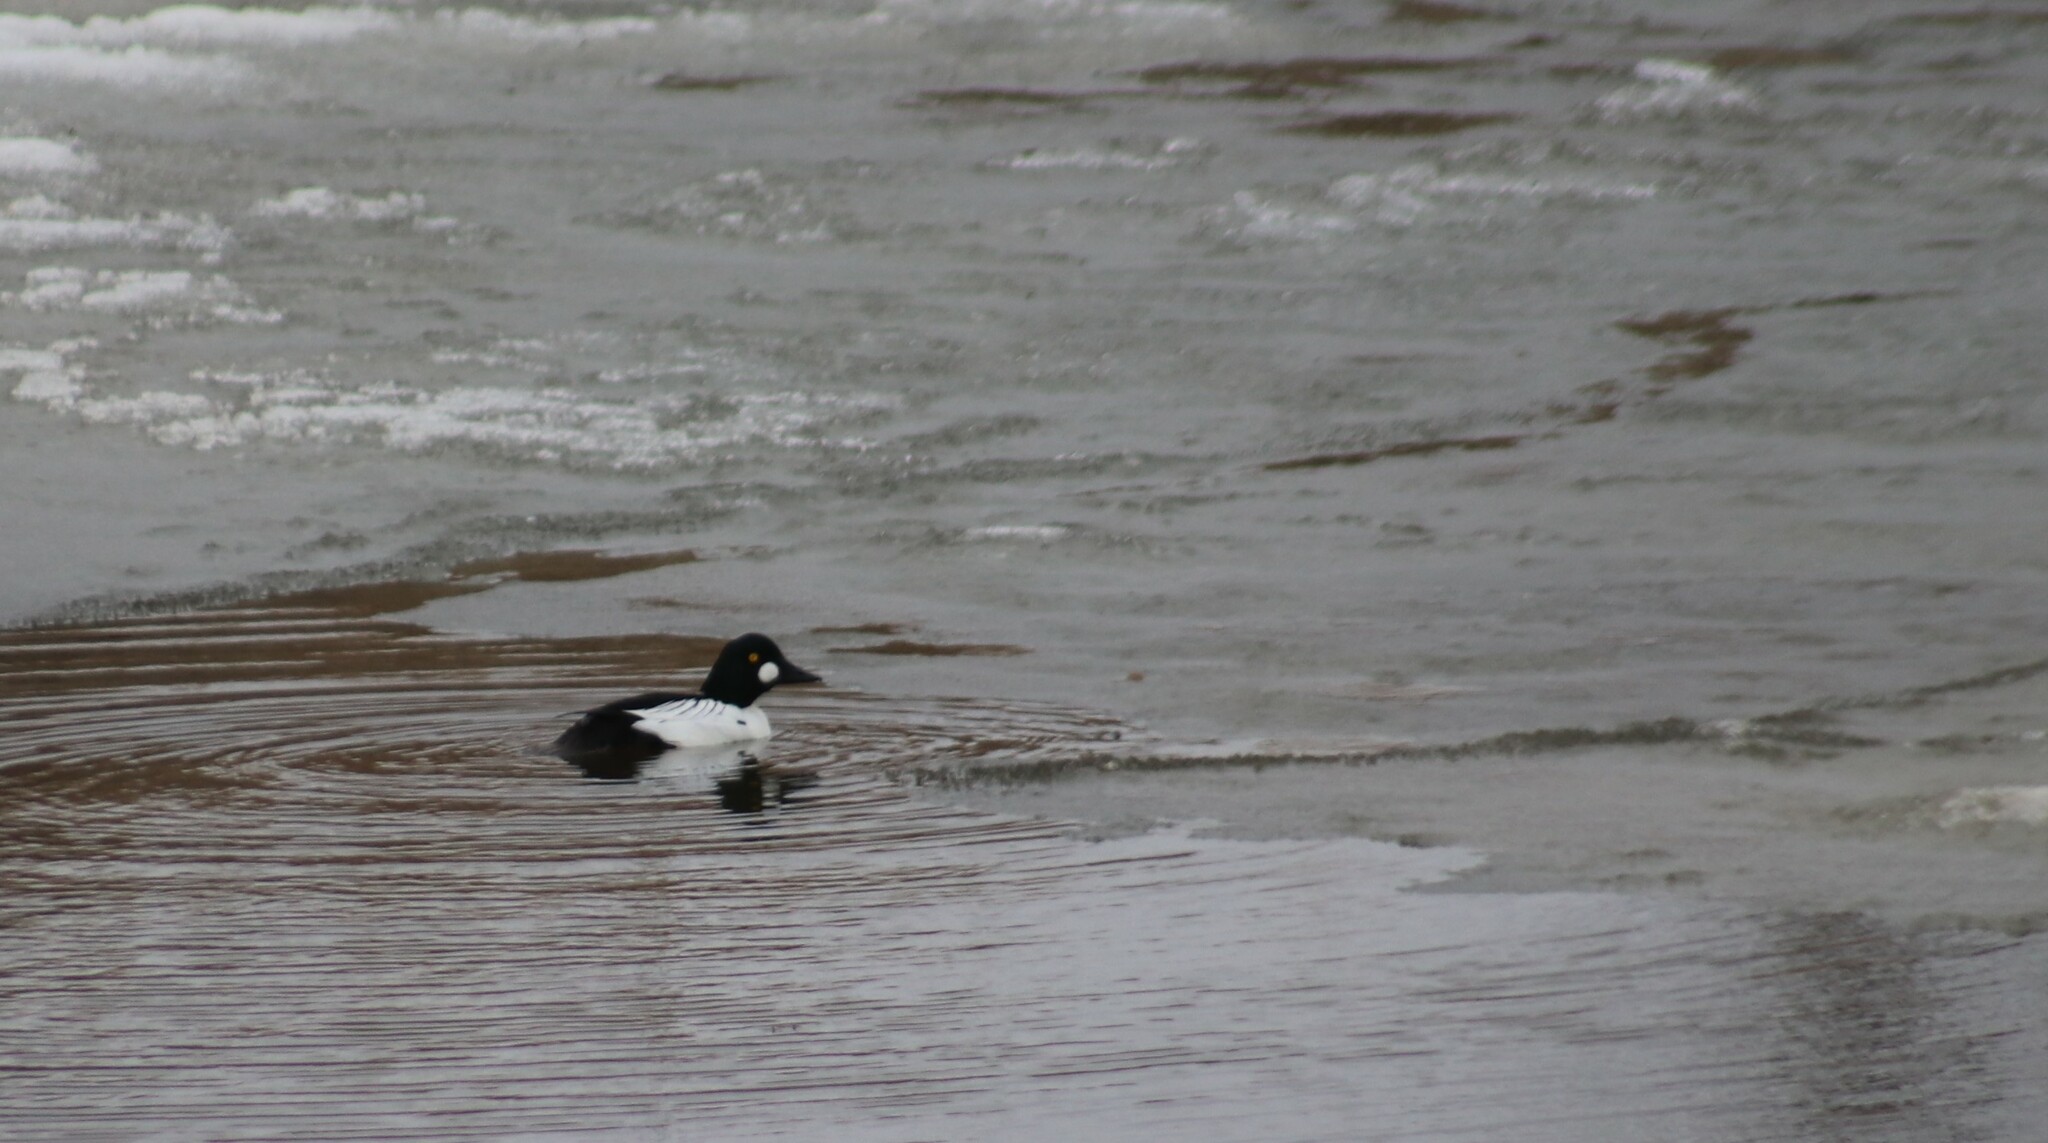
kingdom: Animalia
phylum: Chordata
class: Aves
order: Anseriformes
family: Anatidae
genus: Bucephala
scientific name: Bucephala clangula
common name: Common goldeneye
